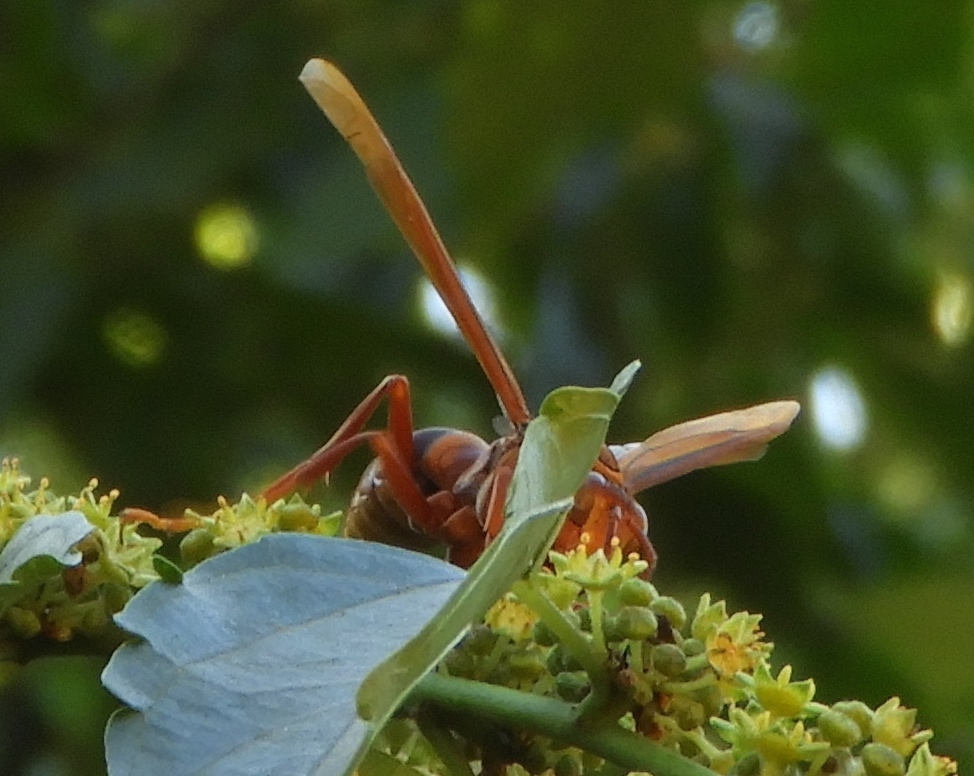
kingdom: Animalia
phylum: Arthropoda
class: Insecta
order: Hymenoptera
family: Eumenidae
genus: Polistes
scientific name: Polistes carnifex
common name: Paper wasp
